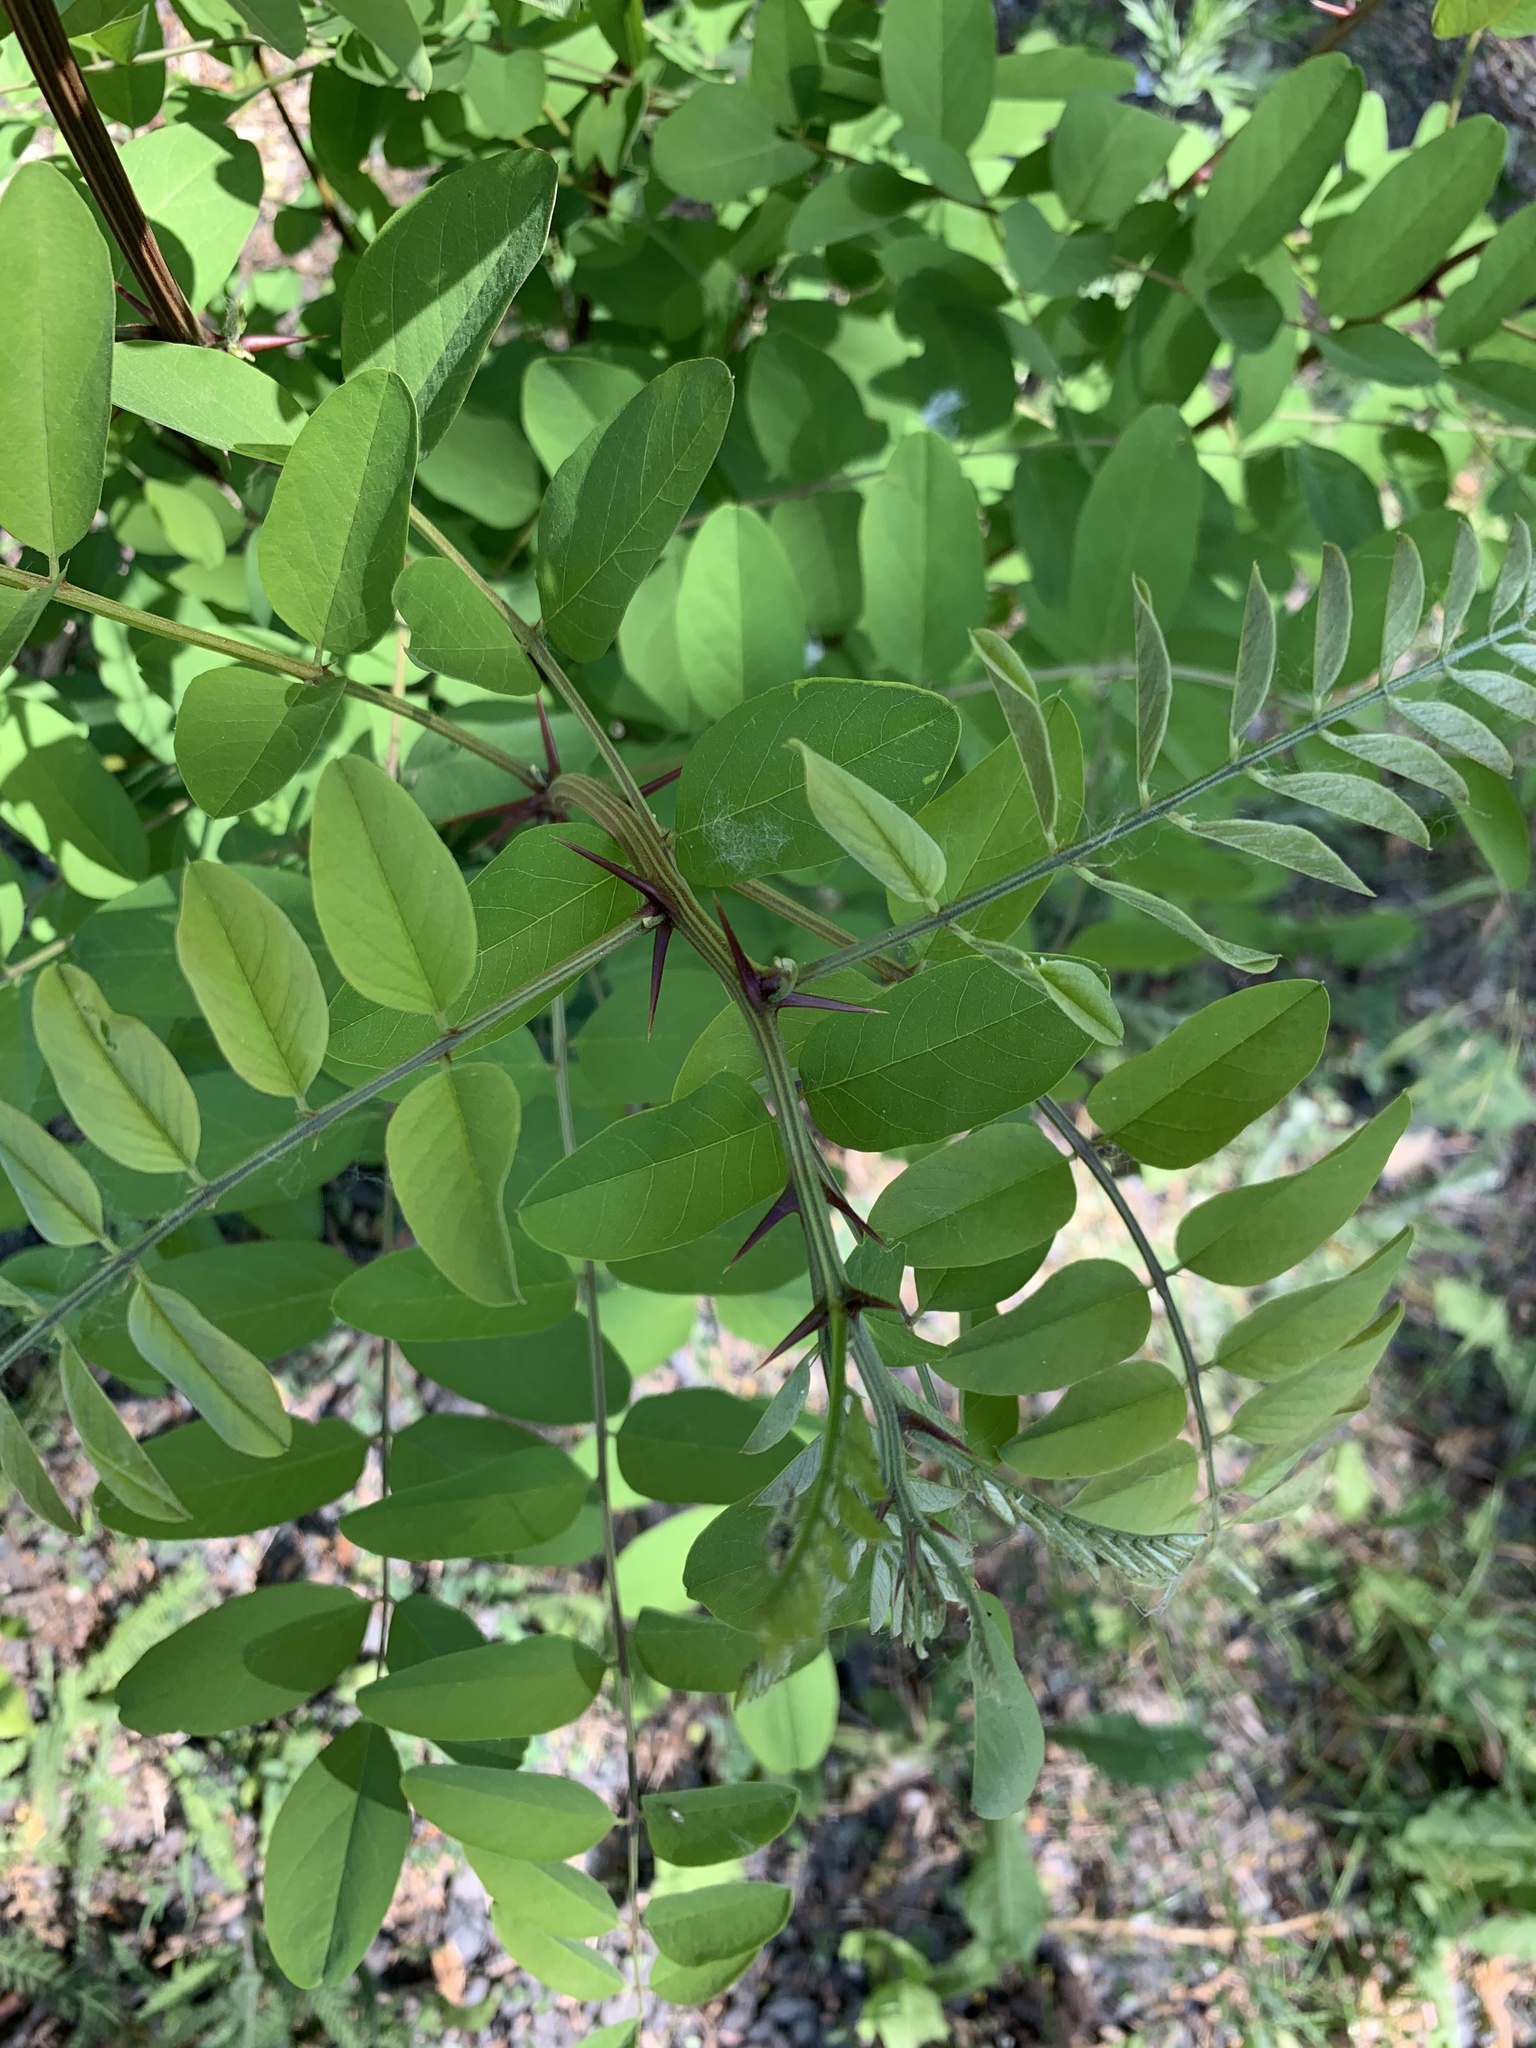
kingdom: Plantae
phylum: Tracheophyta
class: Magnoliopsida
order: Fabales
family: Fabaceae
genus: Robinia
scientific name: Robinia pseudoacacia
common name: Black locust
